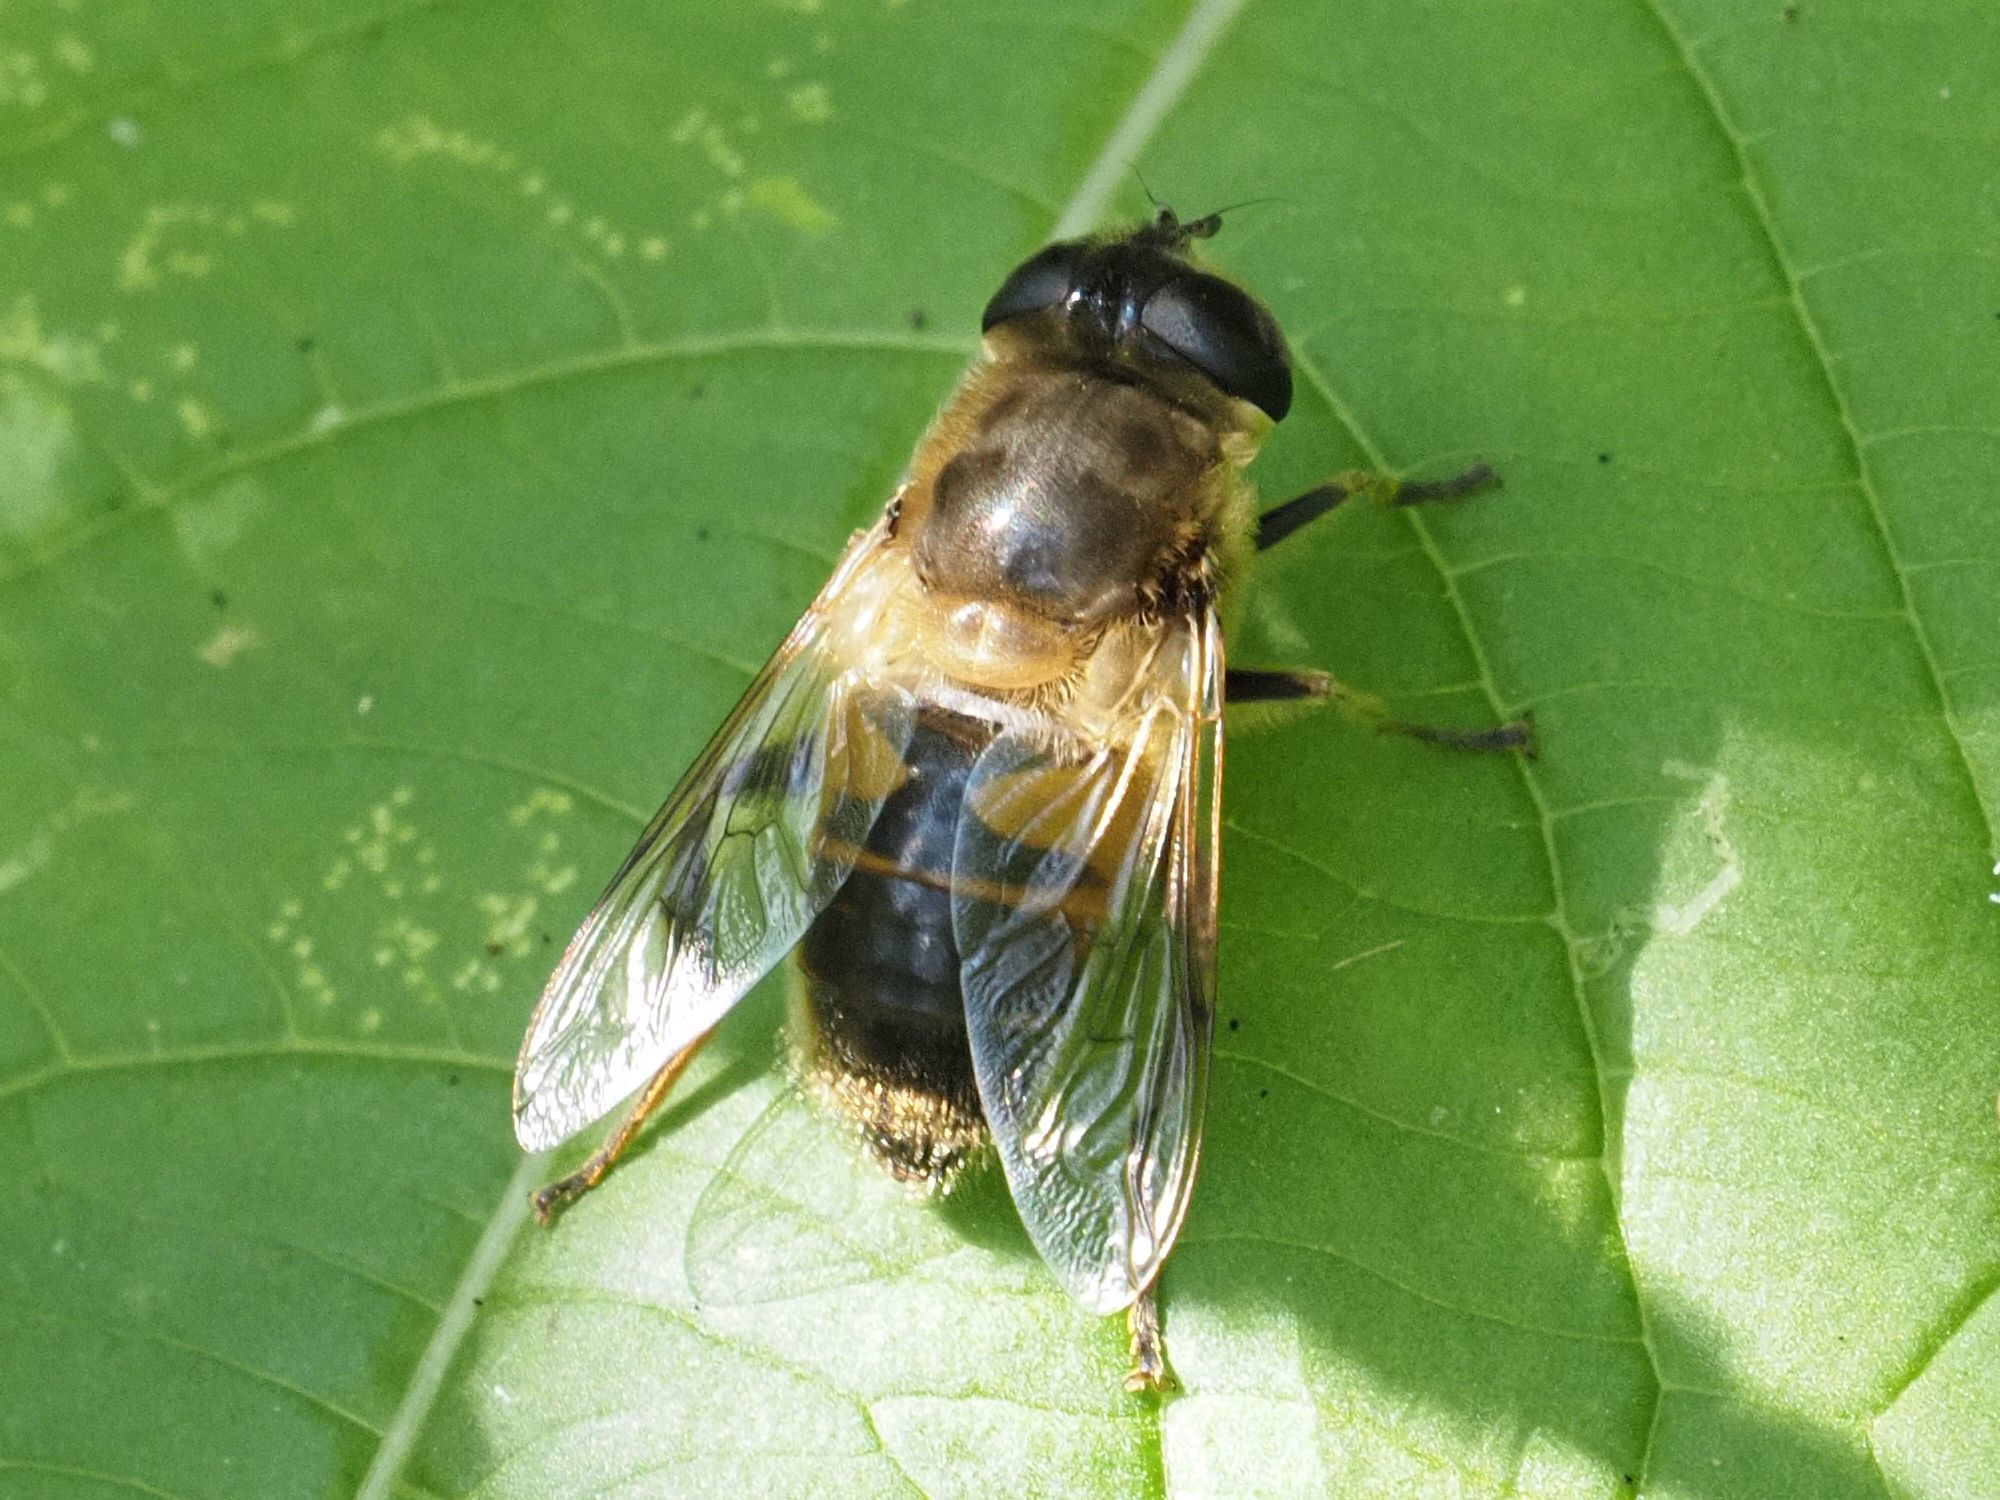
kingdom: Animalia
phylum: Arthropoda
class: Insecta
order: Diptera
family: Syrphidae
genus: Eristalis
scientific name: Eristalis tenax
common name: Drone fly
